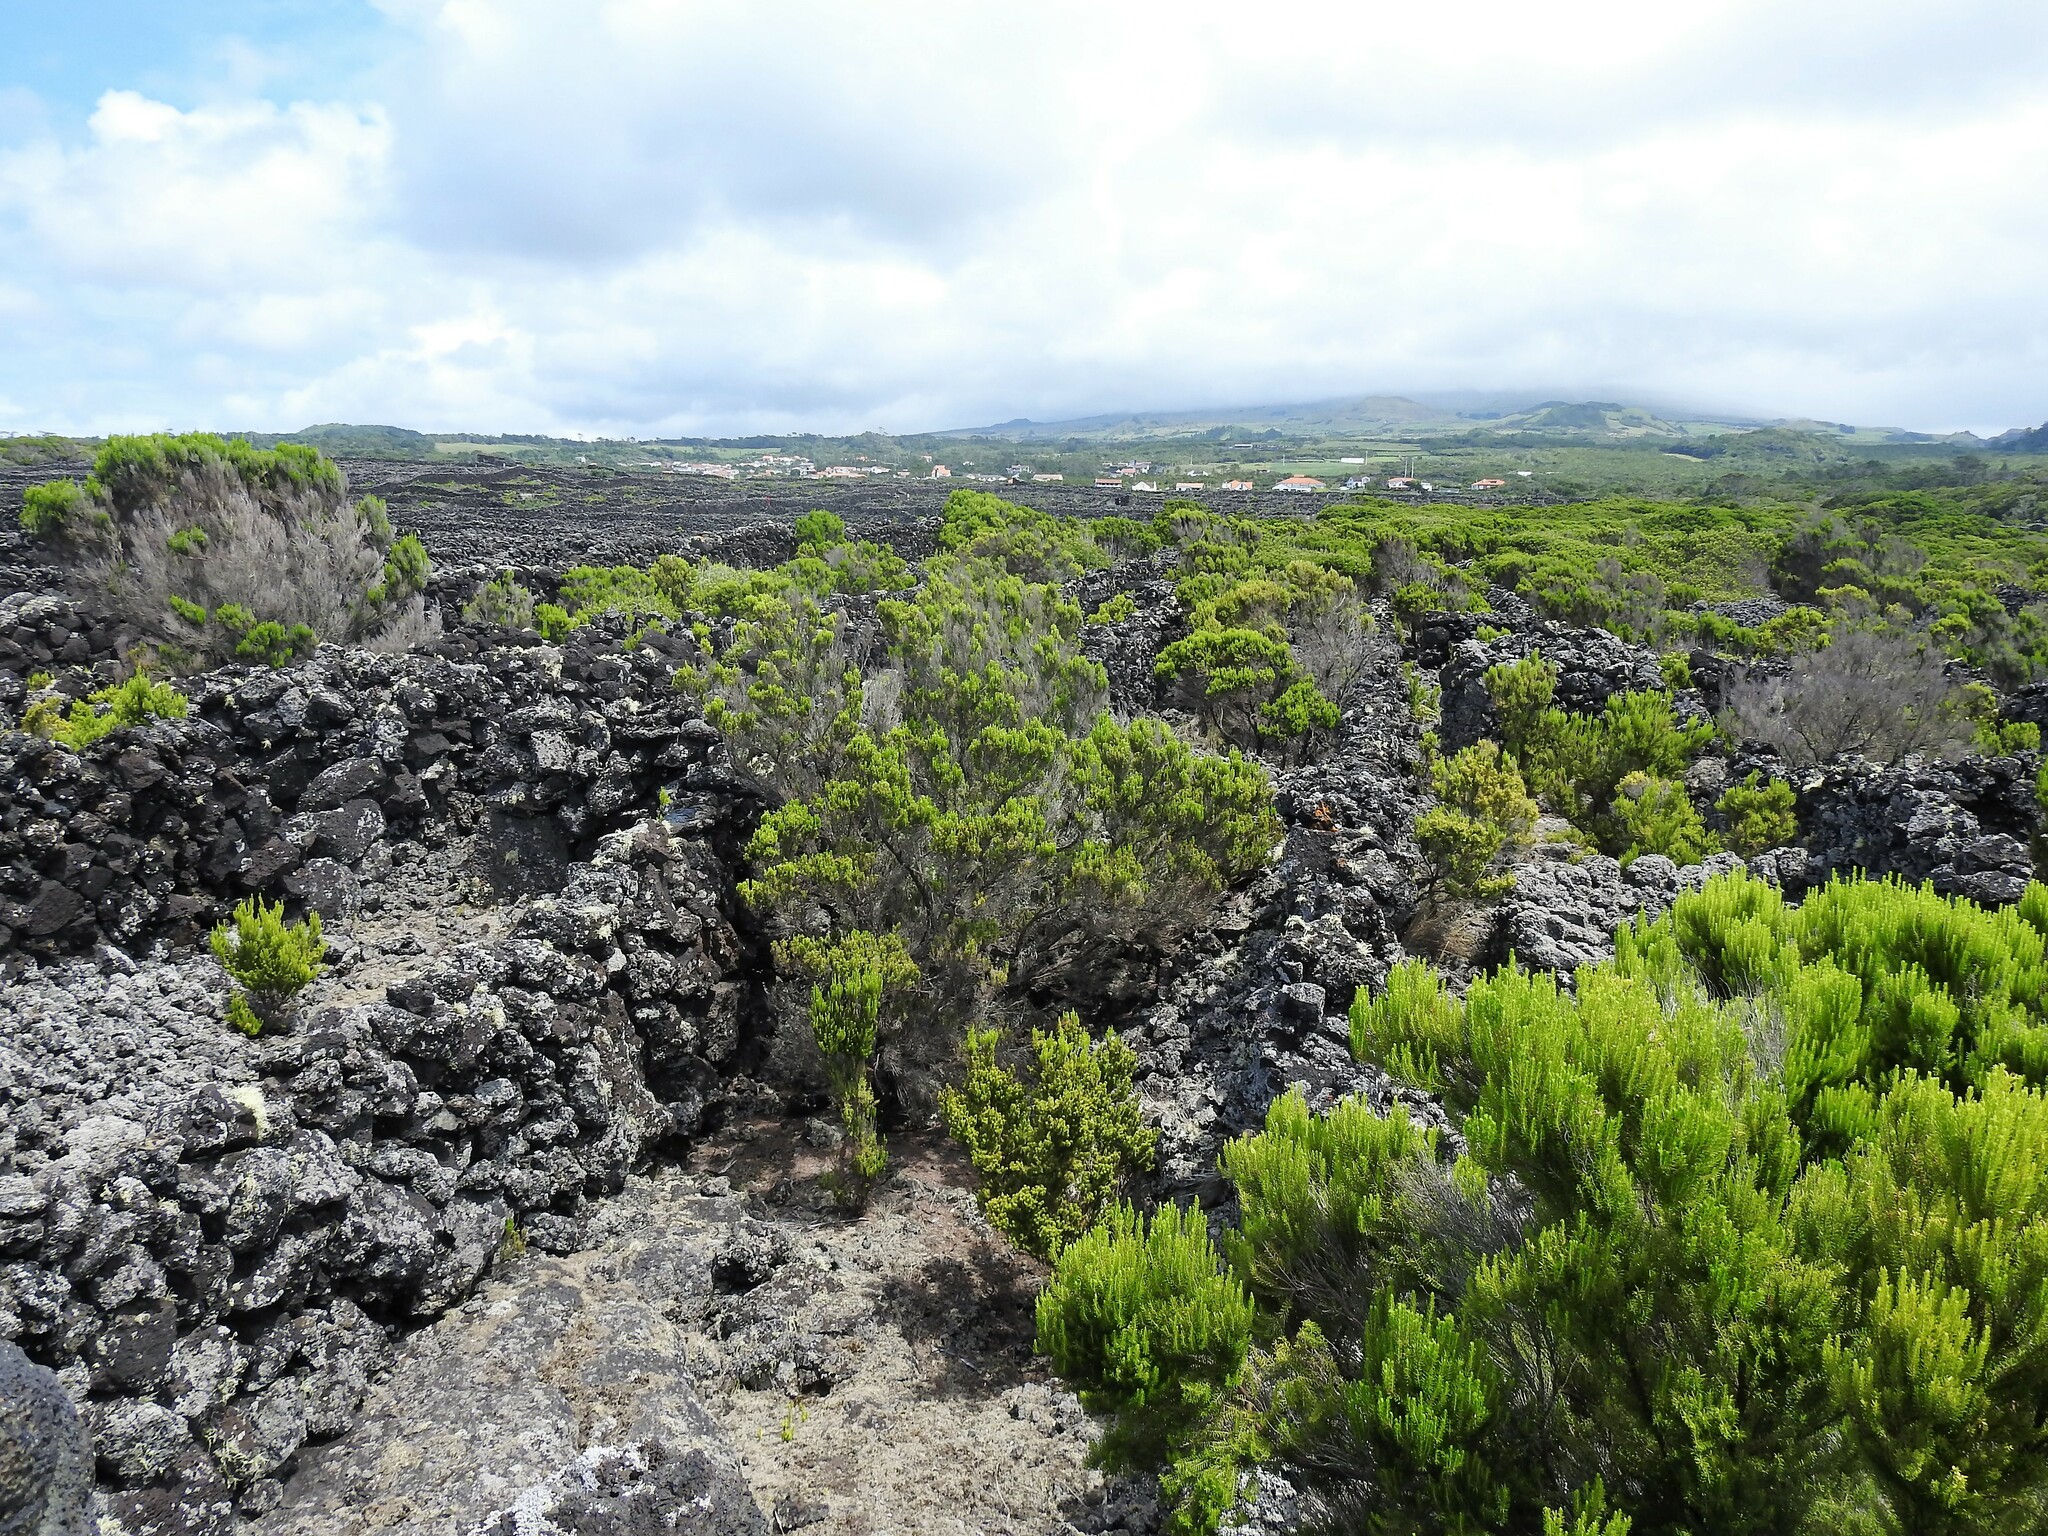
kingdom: Plantae
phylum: Tracheophyta
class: Magnoliopsida
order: Ericales
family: Ericaceae
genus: Erica
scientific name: Erica azorica
